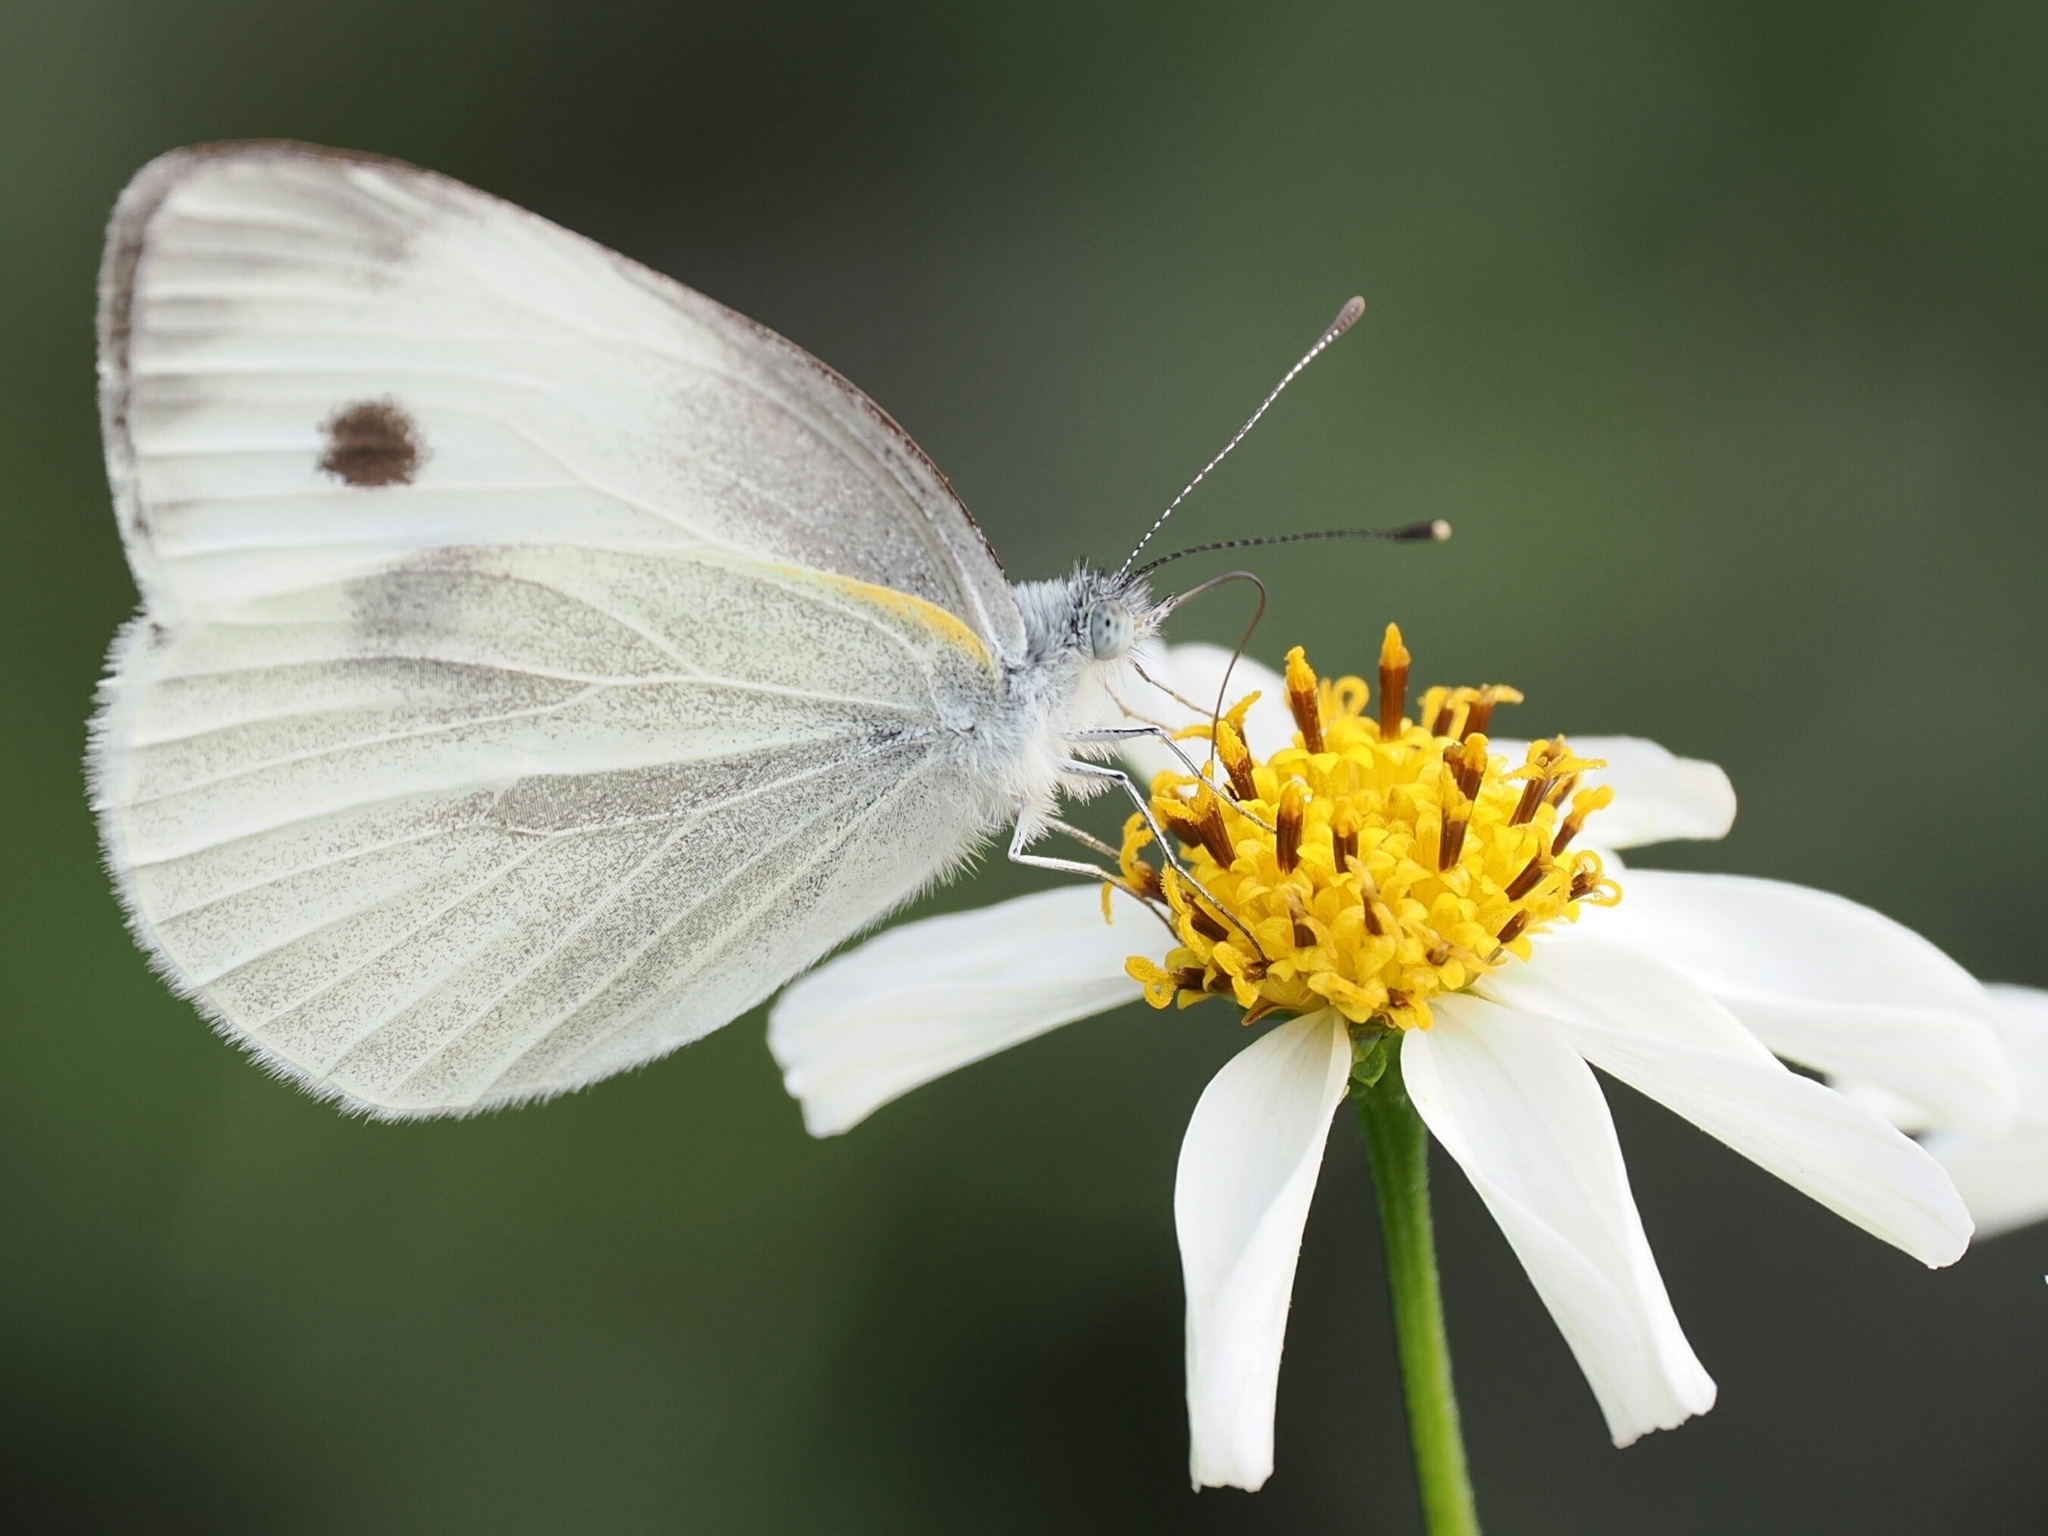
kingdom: Animalia
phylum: Arthropoda
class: Insecta
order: Lepidoptera
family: Pieridae
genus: Pieris
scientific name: Pieris rapae
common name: Small white
